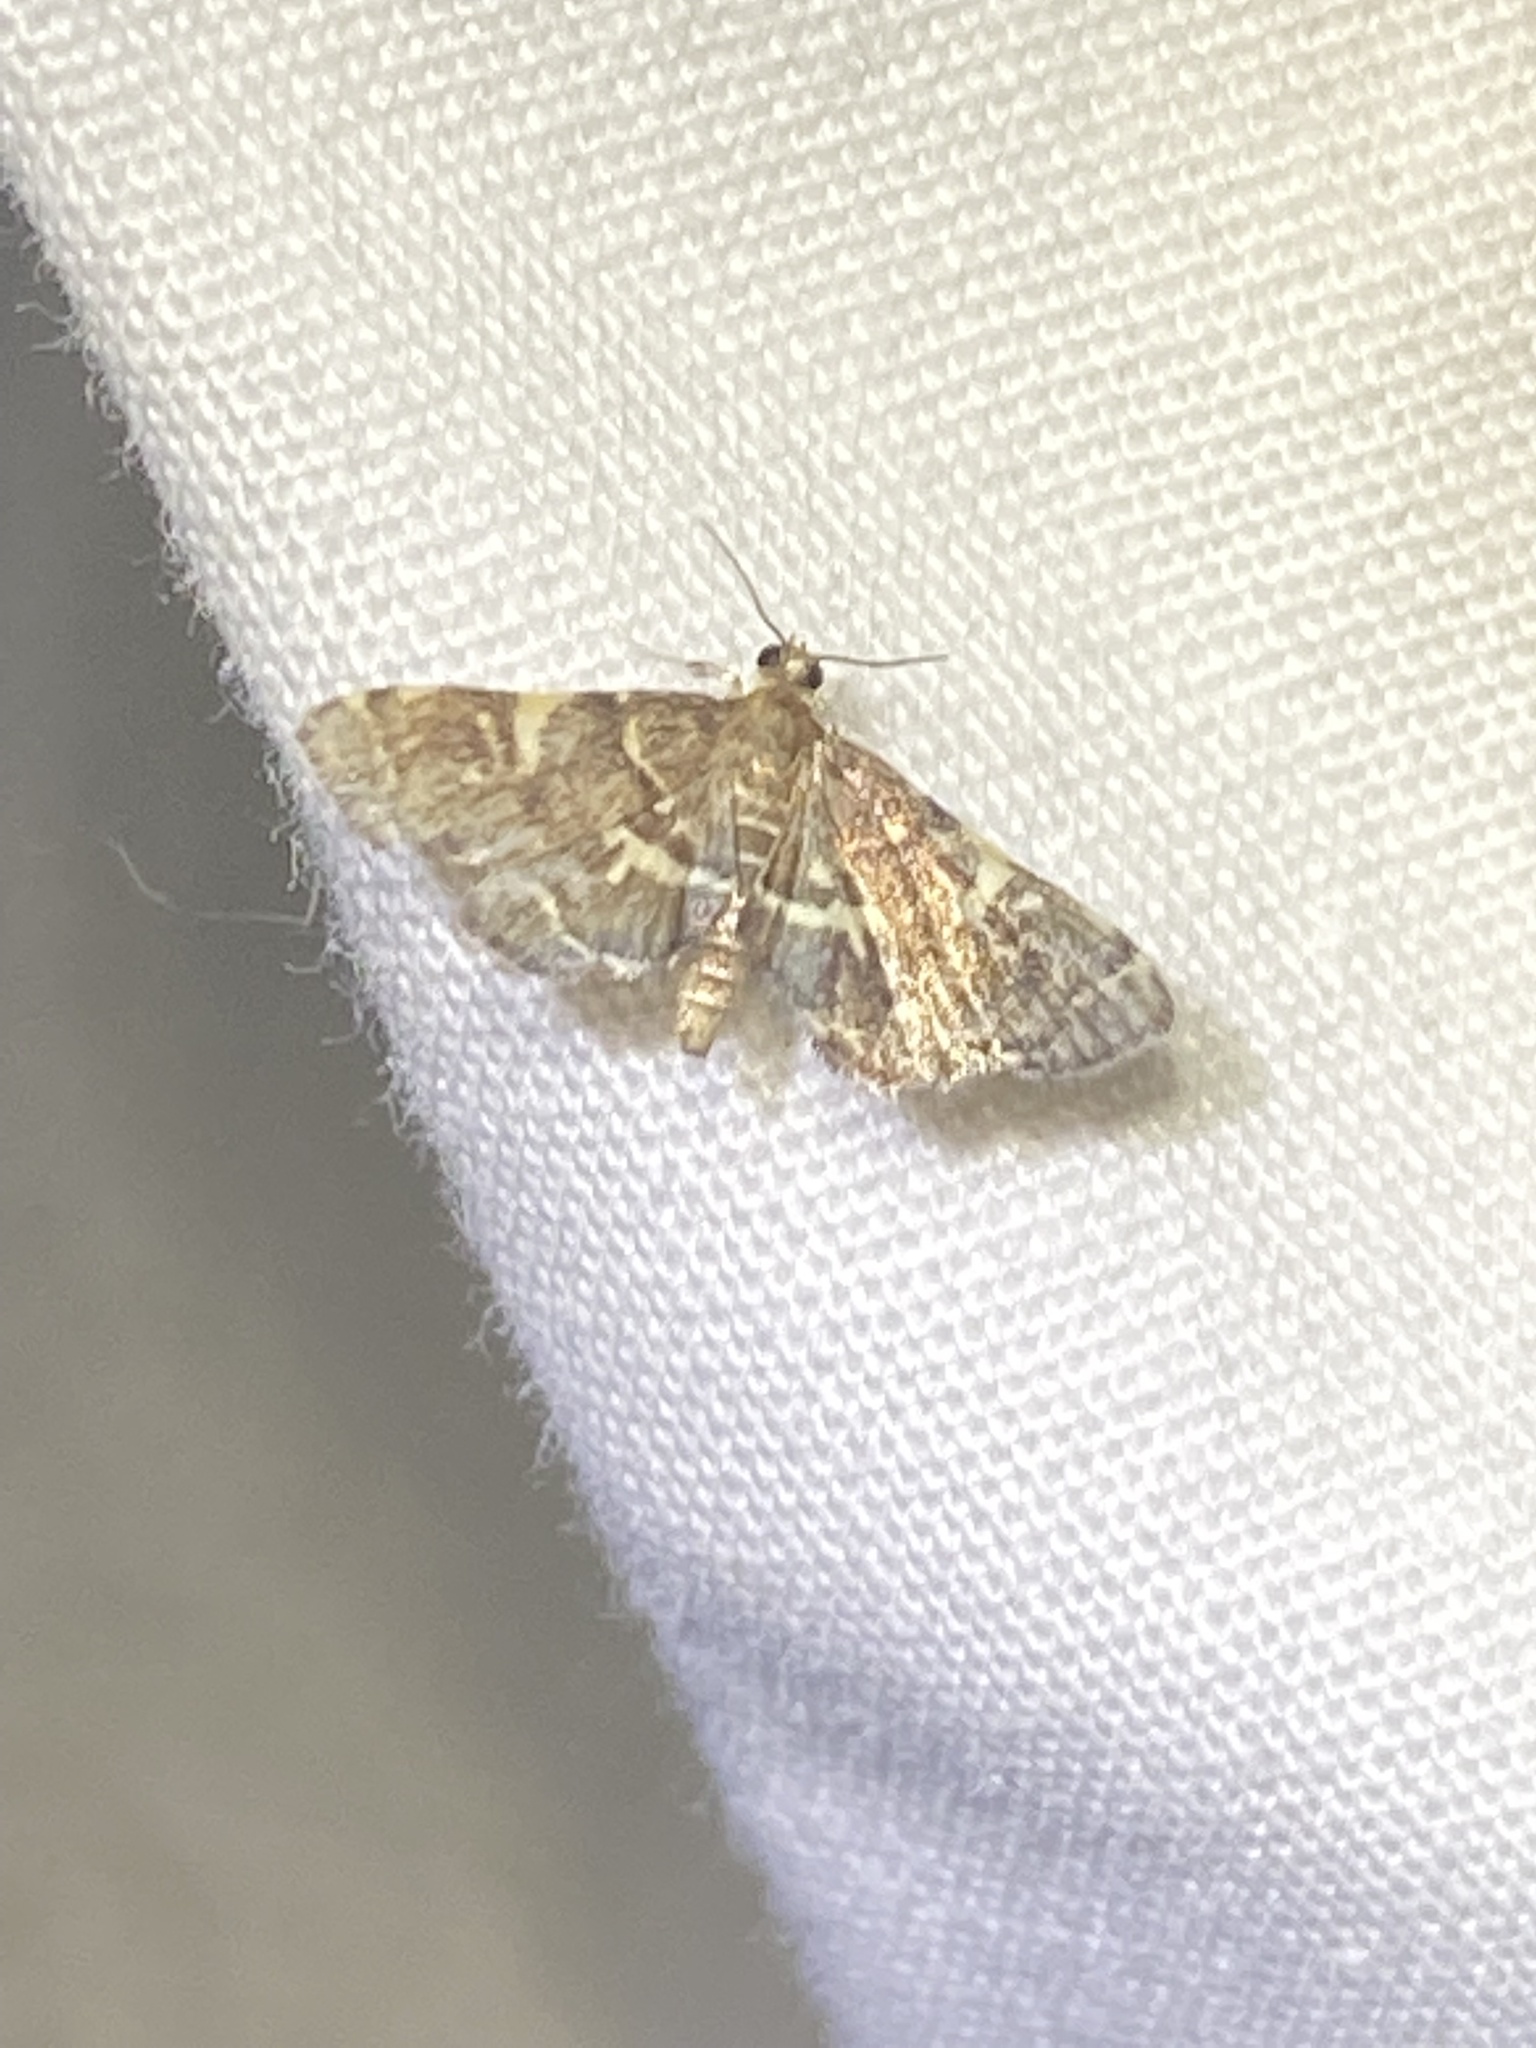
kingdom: Animalia
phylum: Arthropoda
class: Insecta
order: Lepidoptera
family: Crambidae
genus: Anageshna
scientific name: Anageshna primordialis
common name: Yellow-spotted webworm moth
